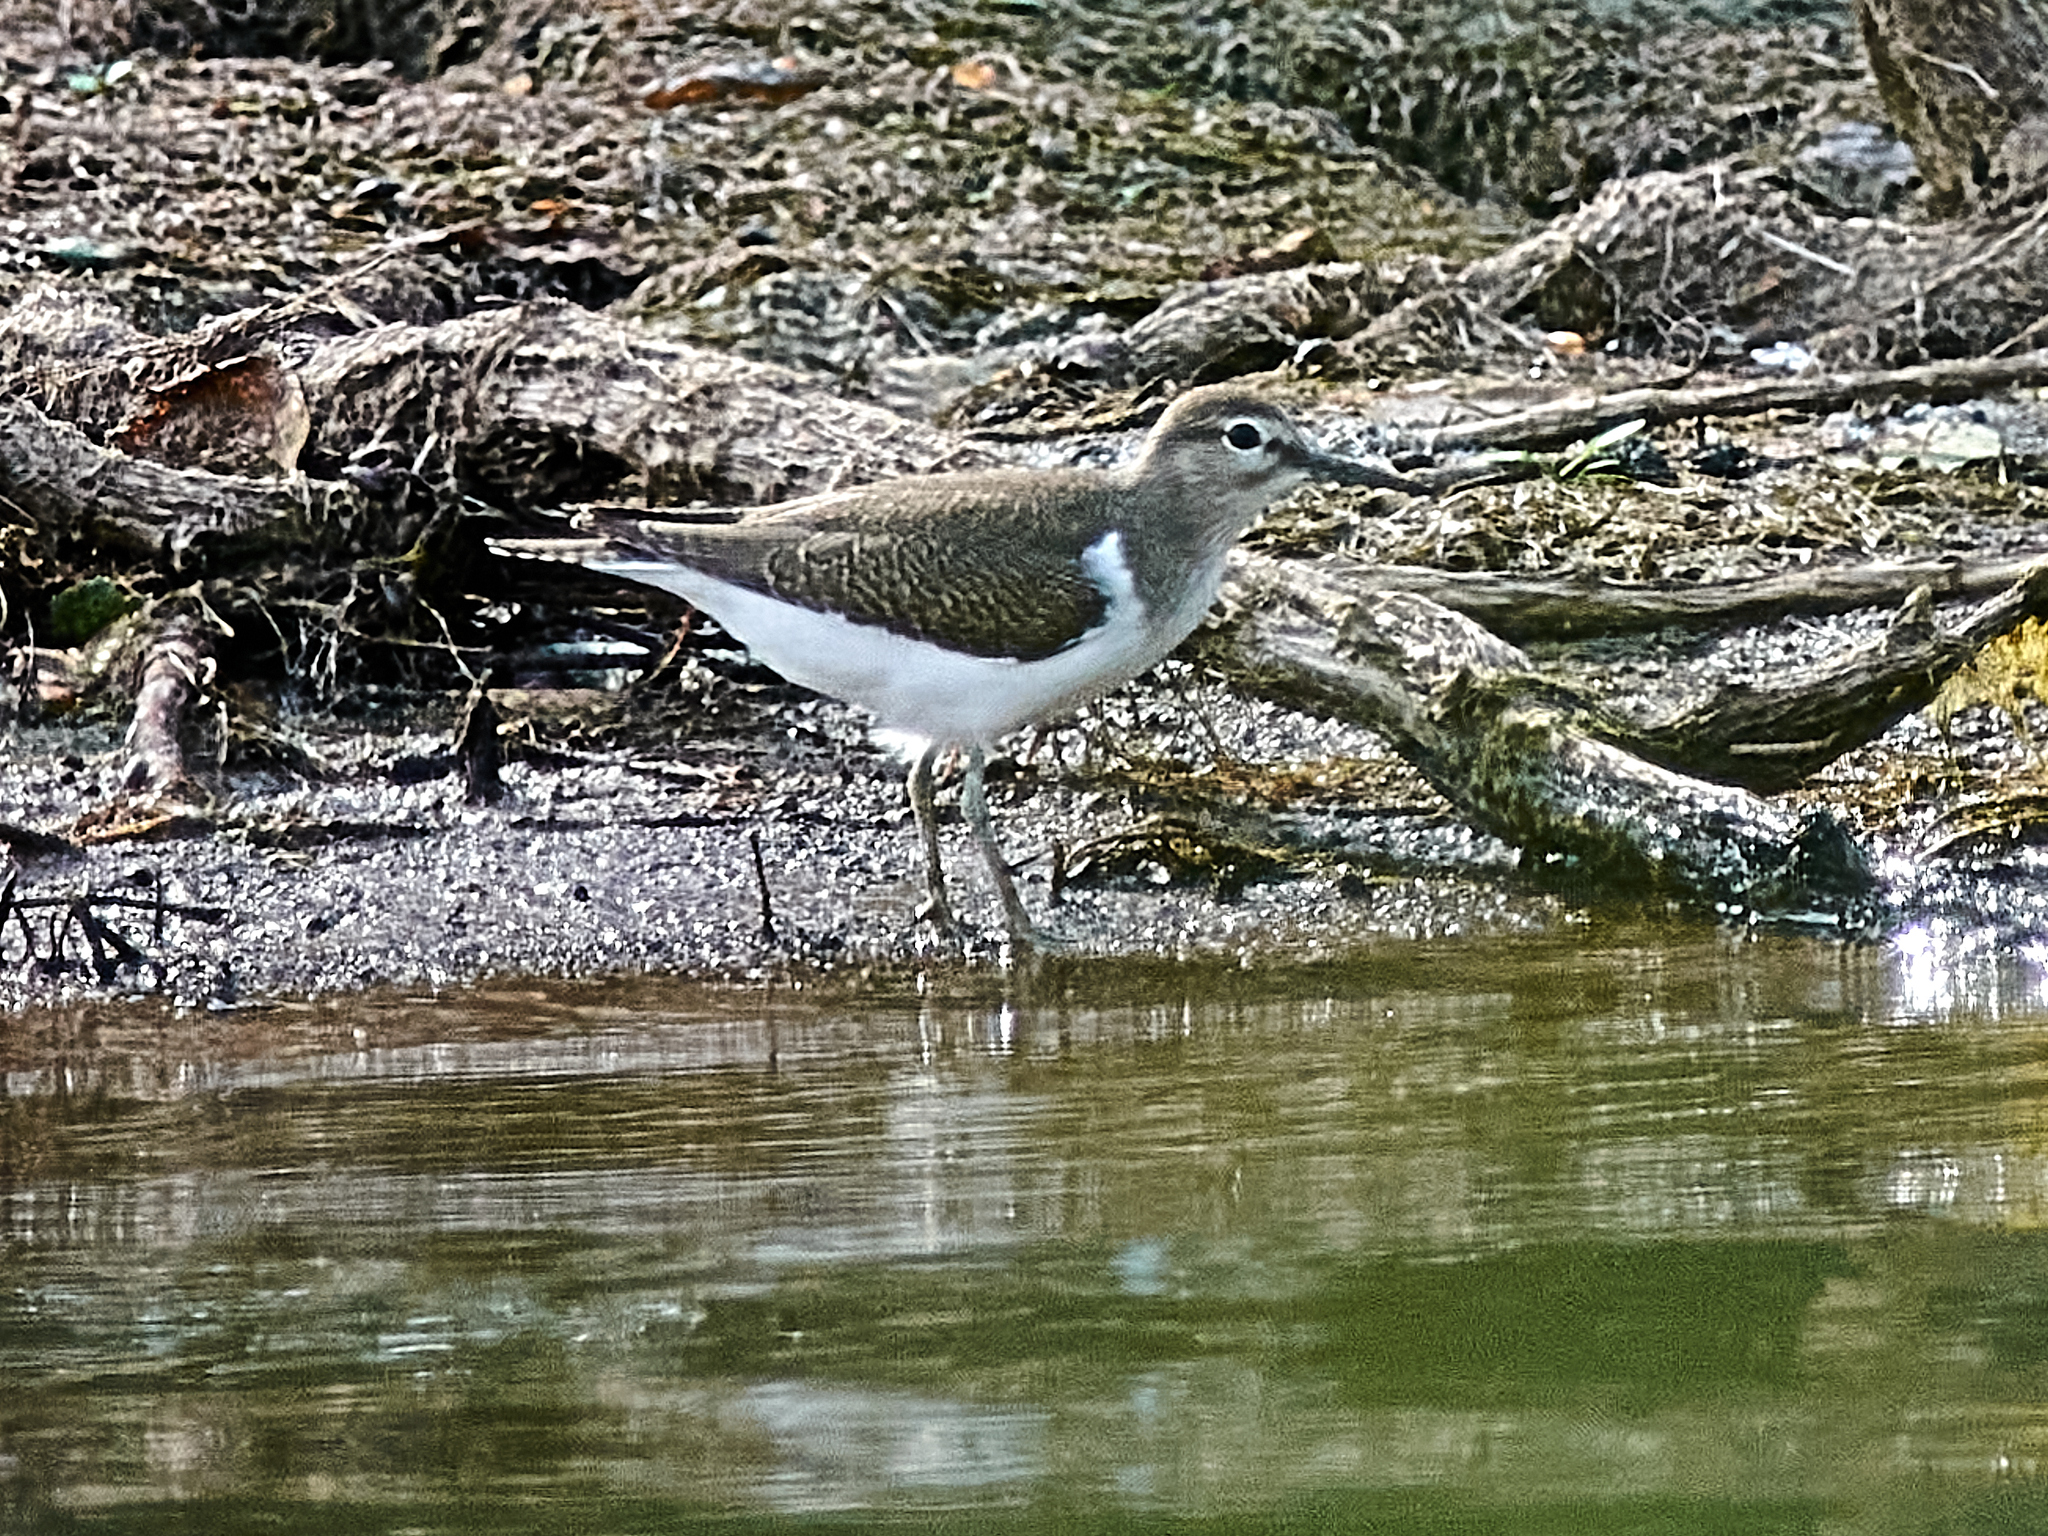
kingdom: Animalia
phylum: Chordata
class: Aves
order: Charadriiformes
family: Scolopacidae
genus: Actitis
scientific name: Actitis hypoleucos
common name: Common sandpiper
